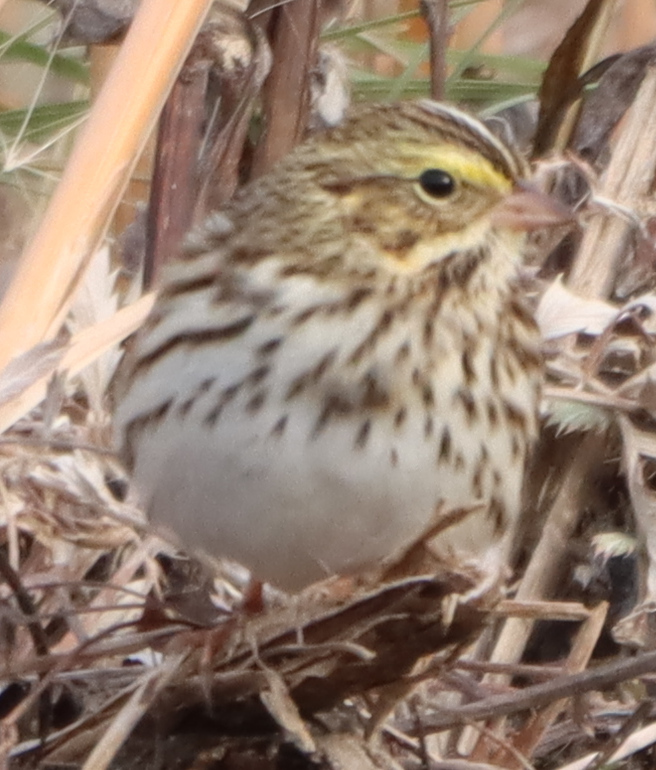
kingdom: Animalia
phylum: Chordata
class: Aves
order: Passeriformes
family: Passerellidae
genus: Passerculus
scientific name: Passerculus sandwichensis
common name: Savannah sparrow
